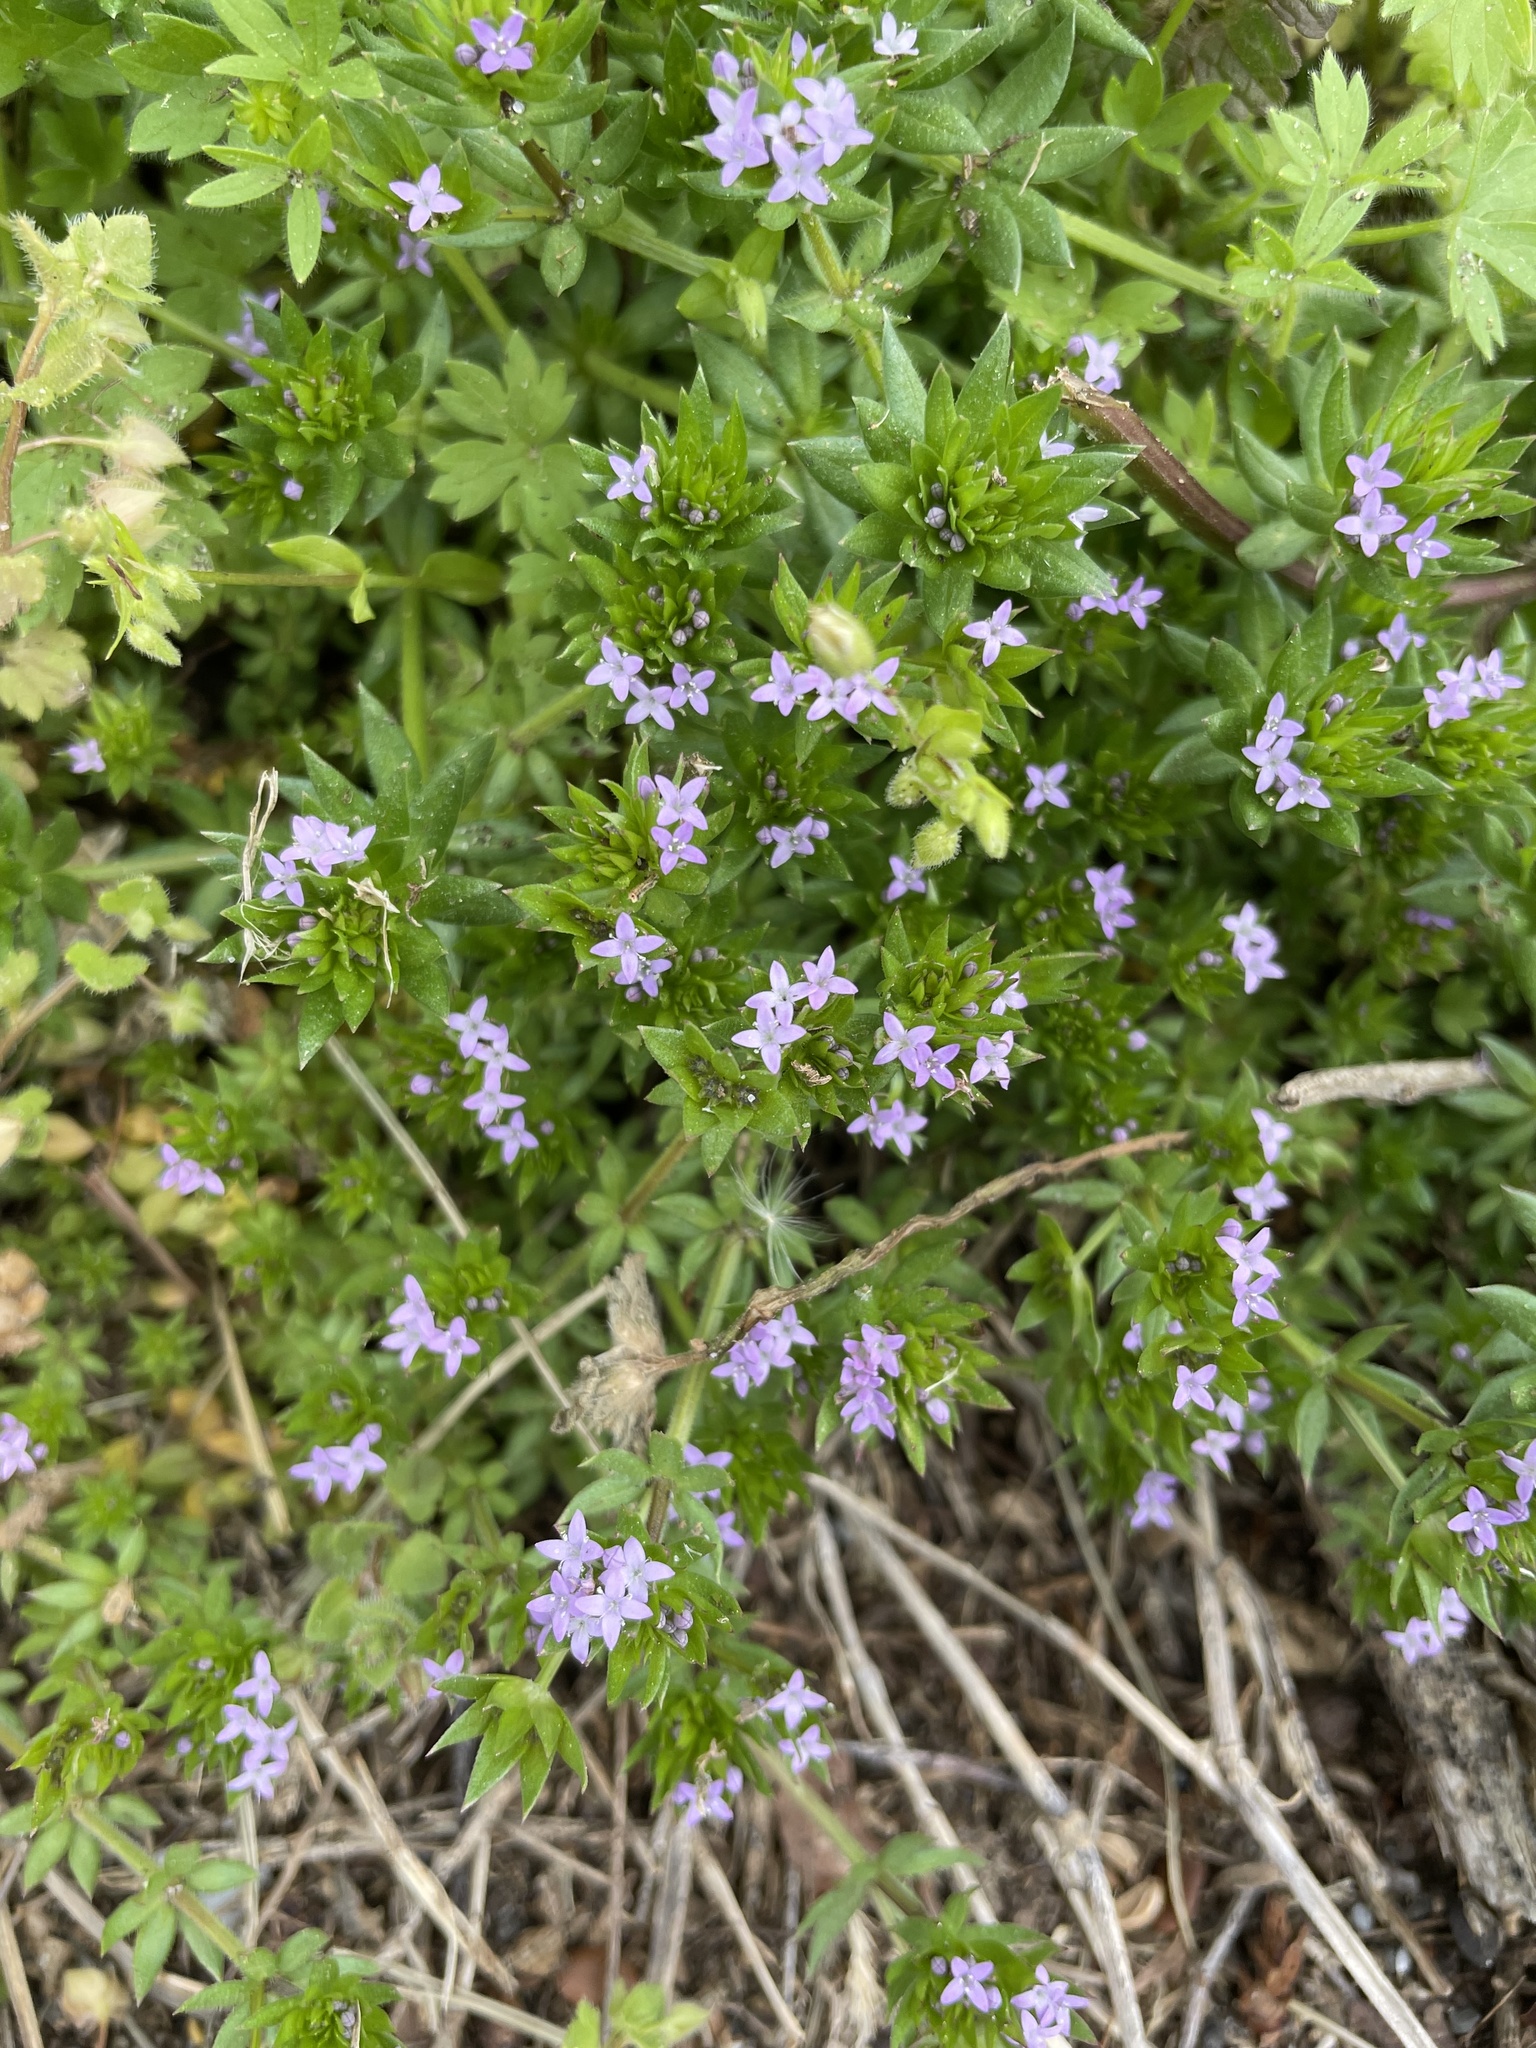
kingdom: Plantae
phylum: Tracheophyta
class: Magnoliopsida
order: Gentianales
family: Rubiaceae
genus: Sherardia
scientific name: Sherardia arvensis
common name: Field madder
